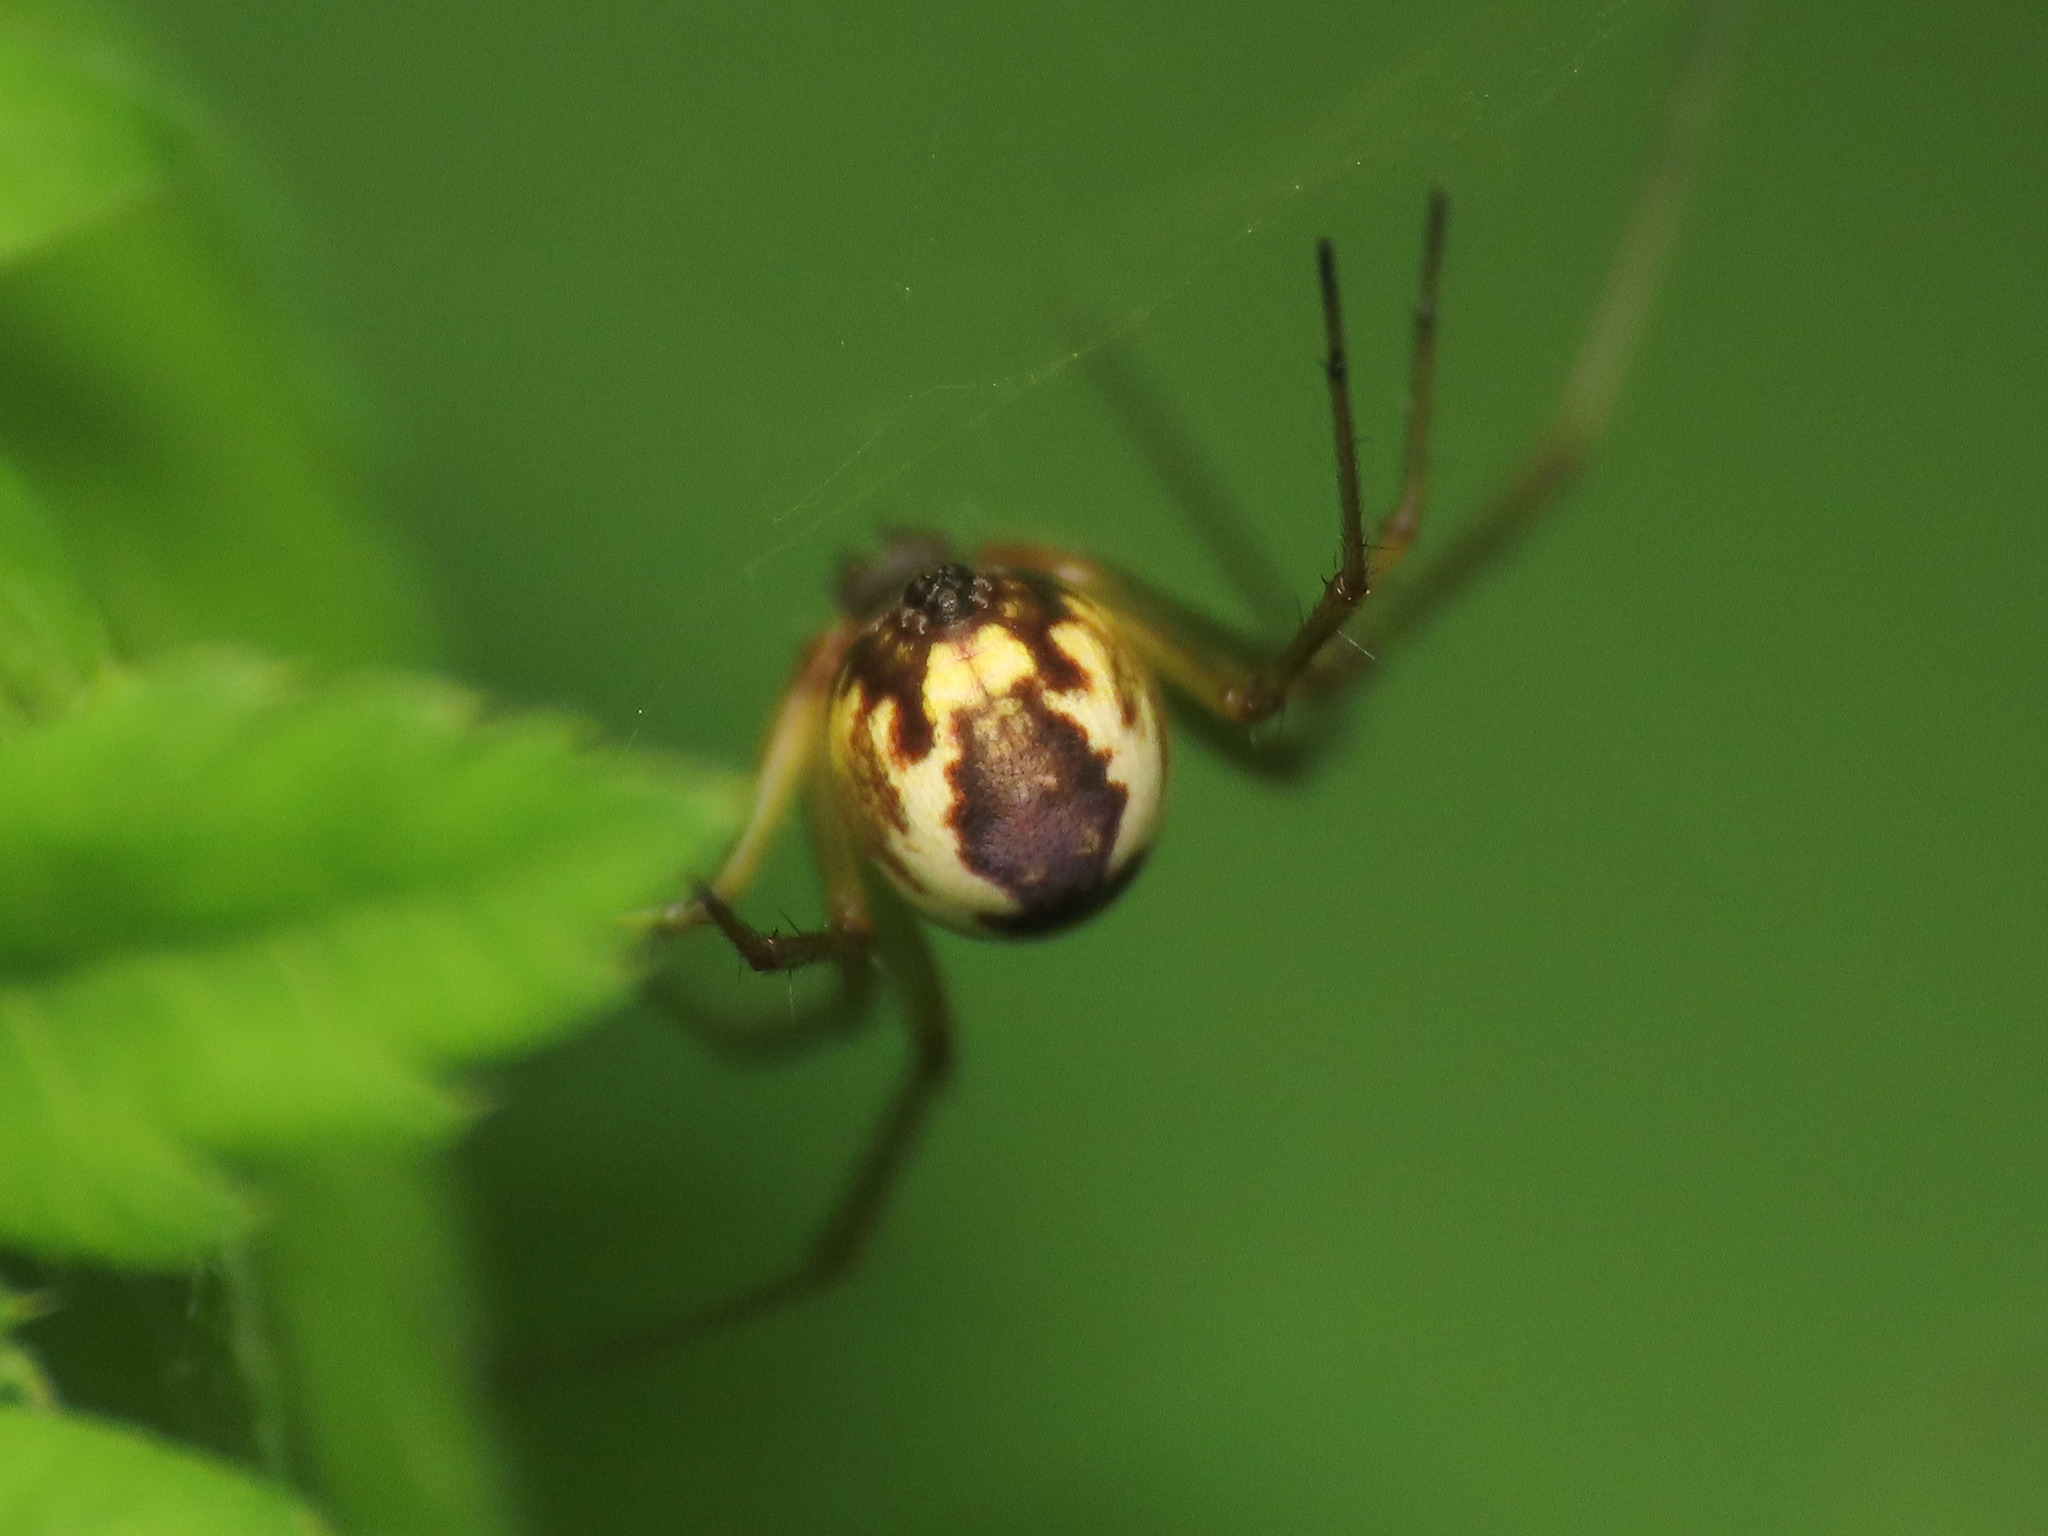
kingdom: Animalia
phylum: Arthropoda
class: Arachnida
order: Araneae
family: Linyphiidae
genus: Neriene
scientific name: Neriene peltata
